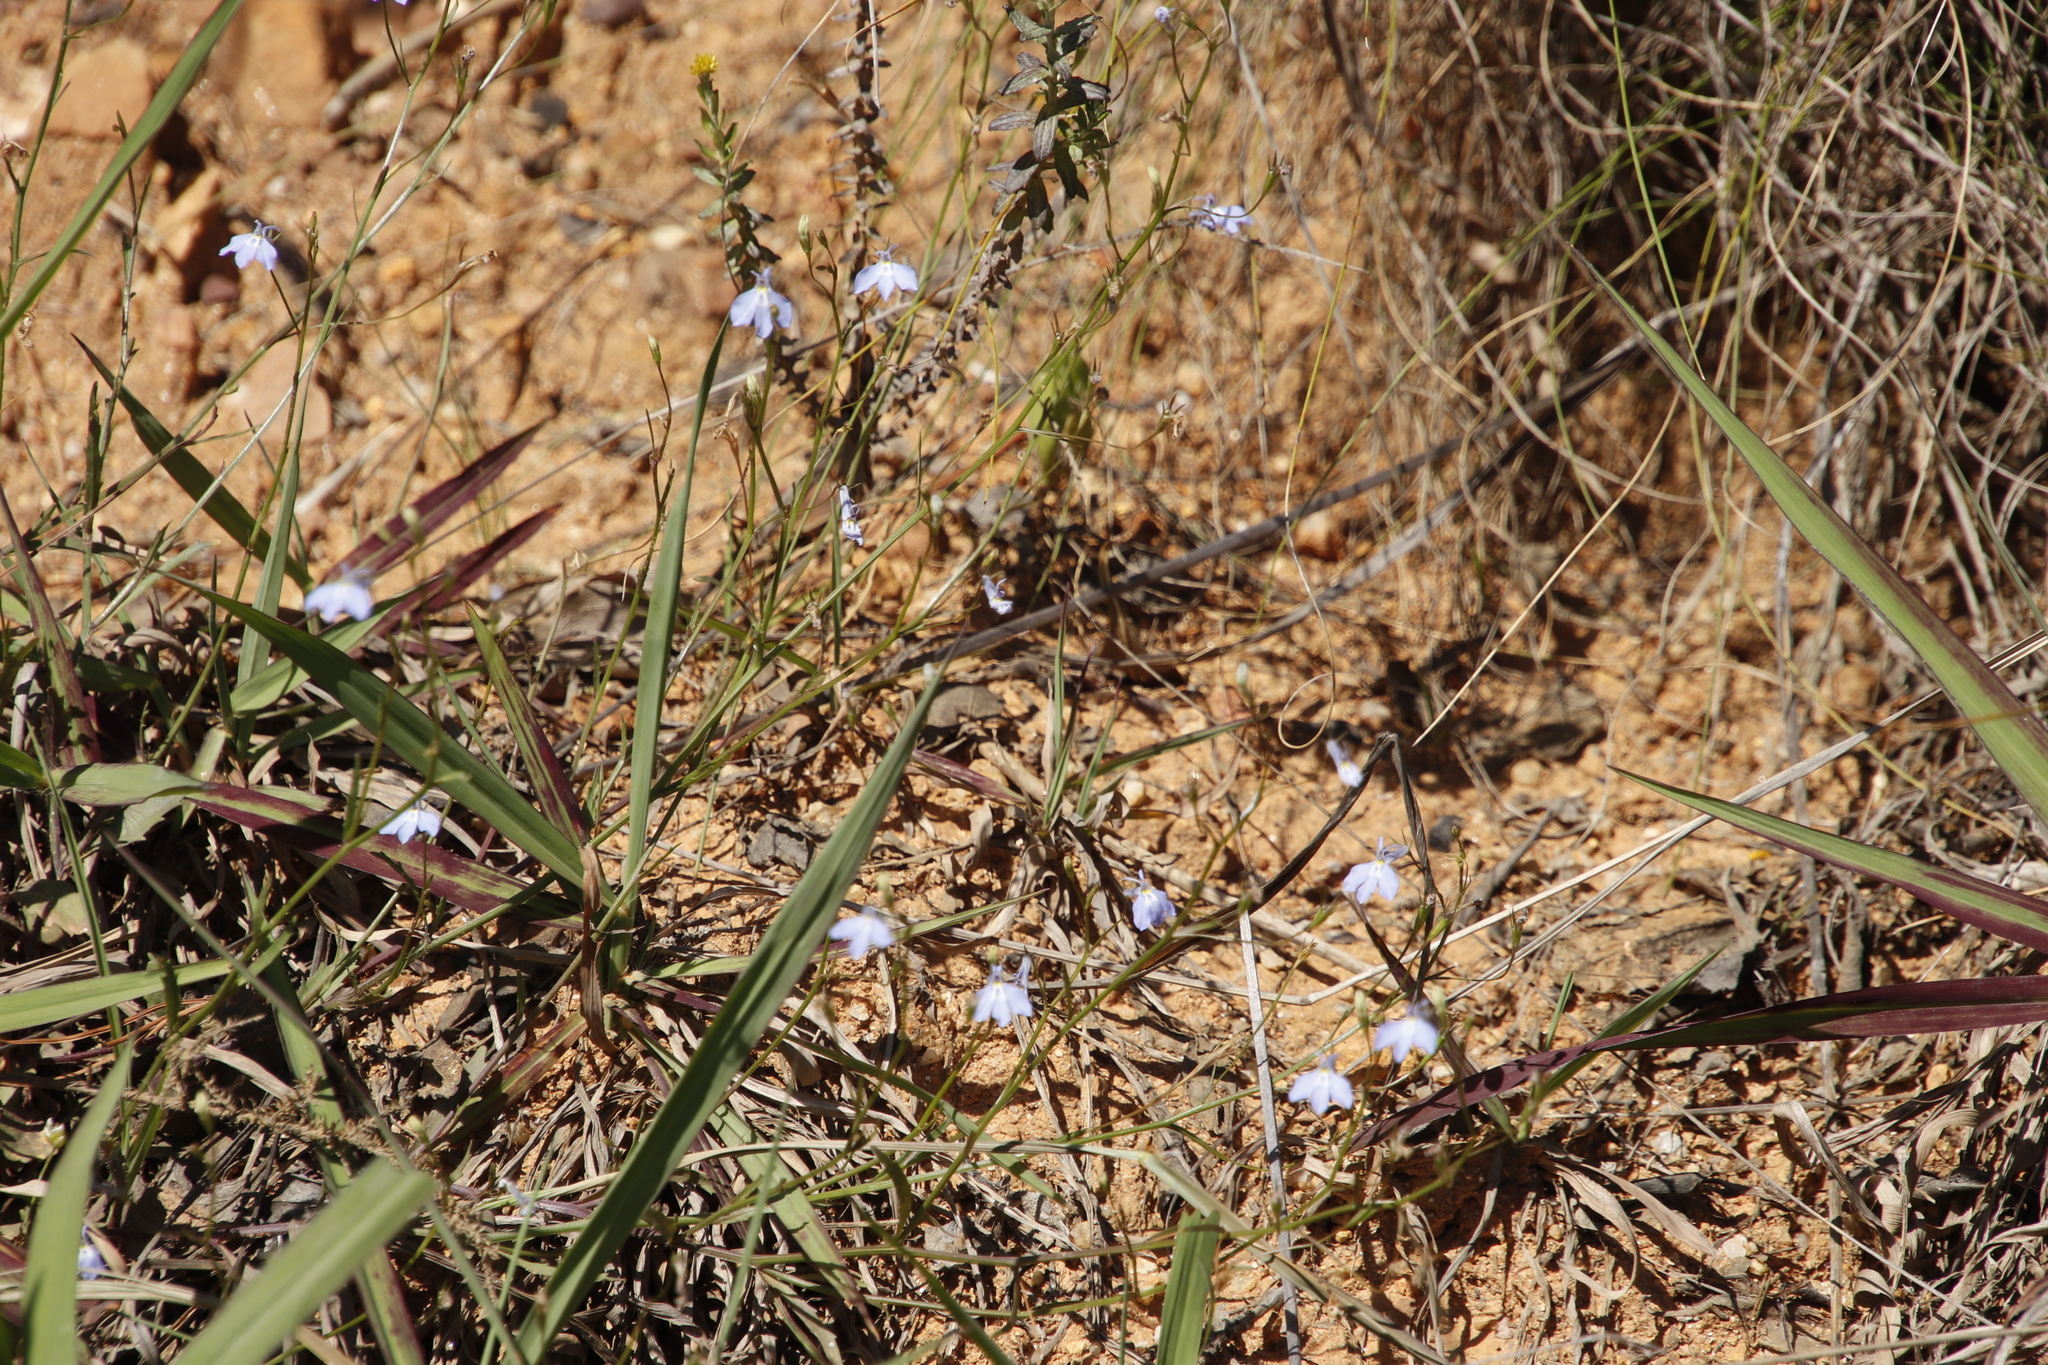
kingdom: Plantae
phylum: Tracheophyta
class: Magnoliopsida
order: Asterales
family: Campanulaceae
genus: Lobelia
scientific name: Lobelia erinus
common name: Edging lobelia
